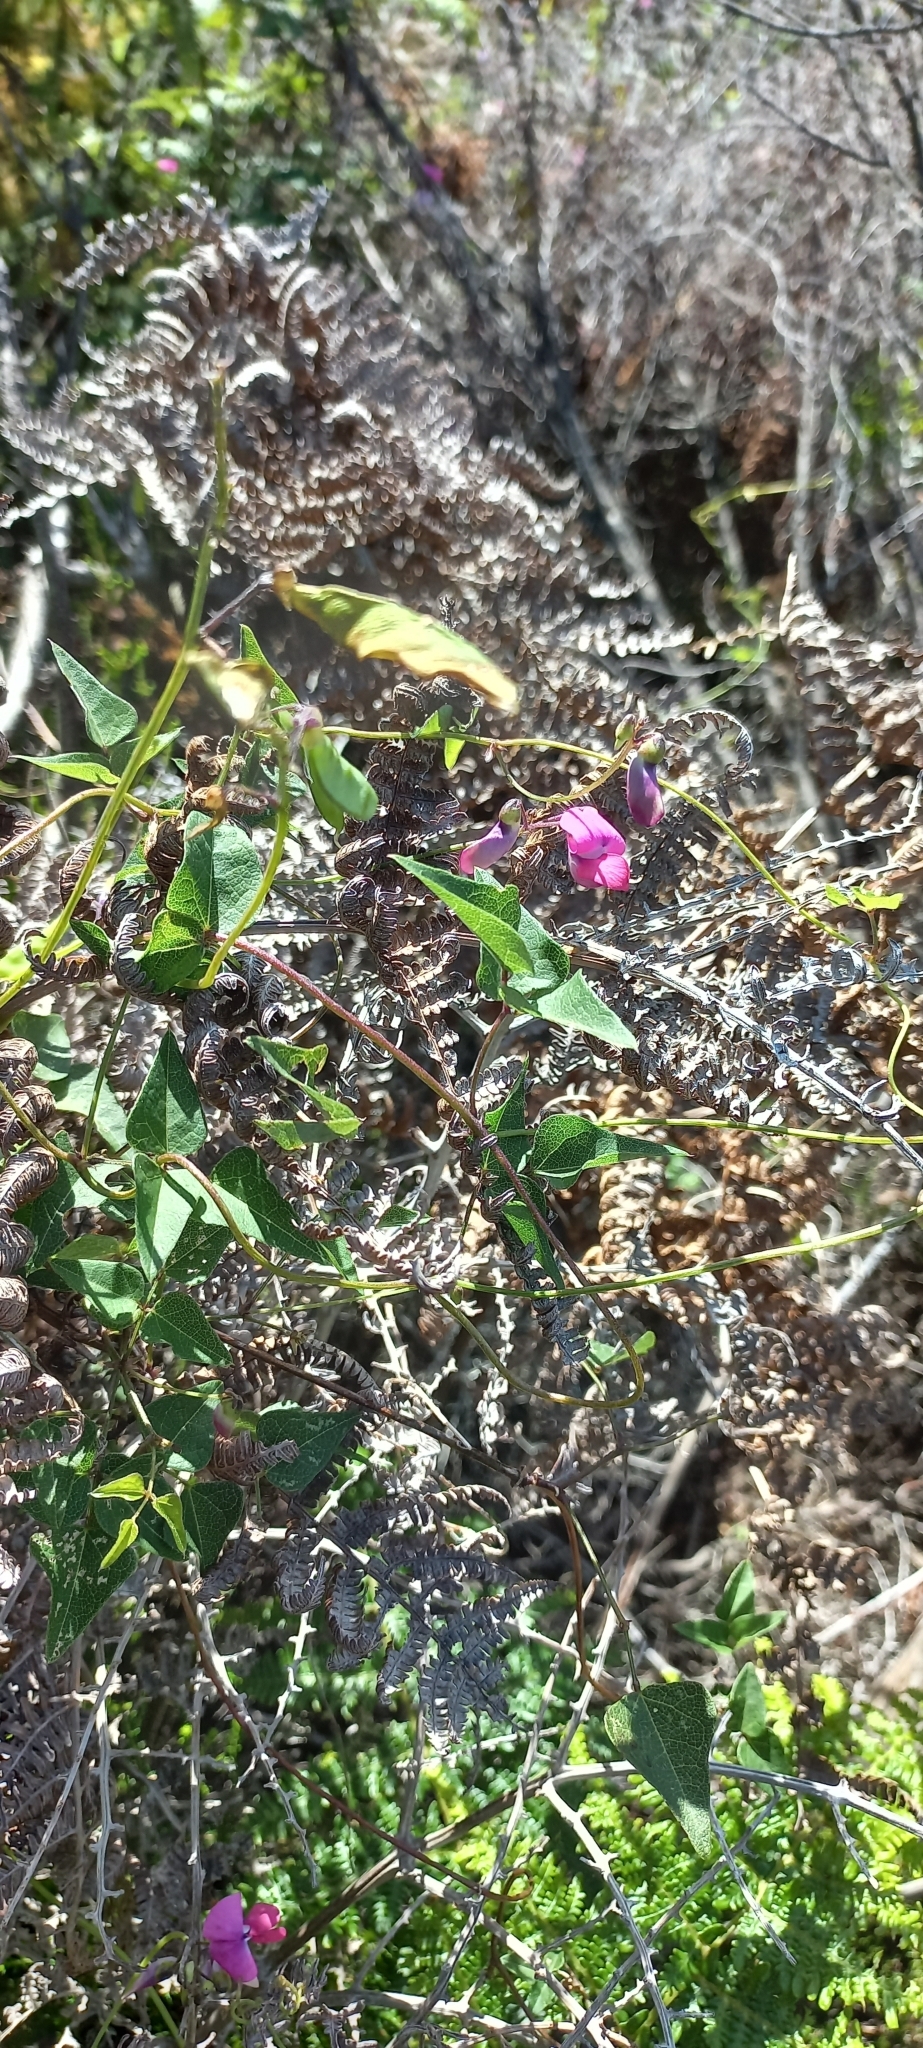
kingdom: Plantae
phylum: Tracheophyta
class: Magnoliopsida
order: Fabales
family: Fabaceae
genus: Dipogon
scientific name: Dipogon lignosus
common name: Okie bean
